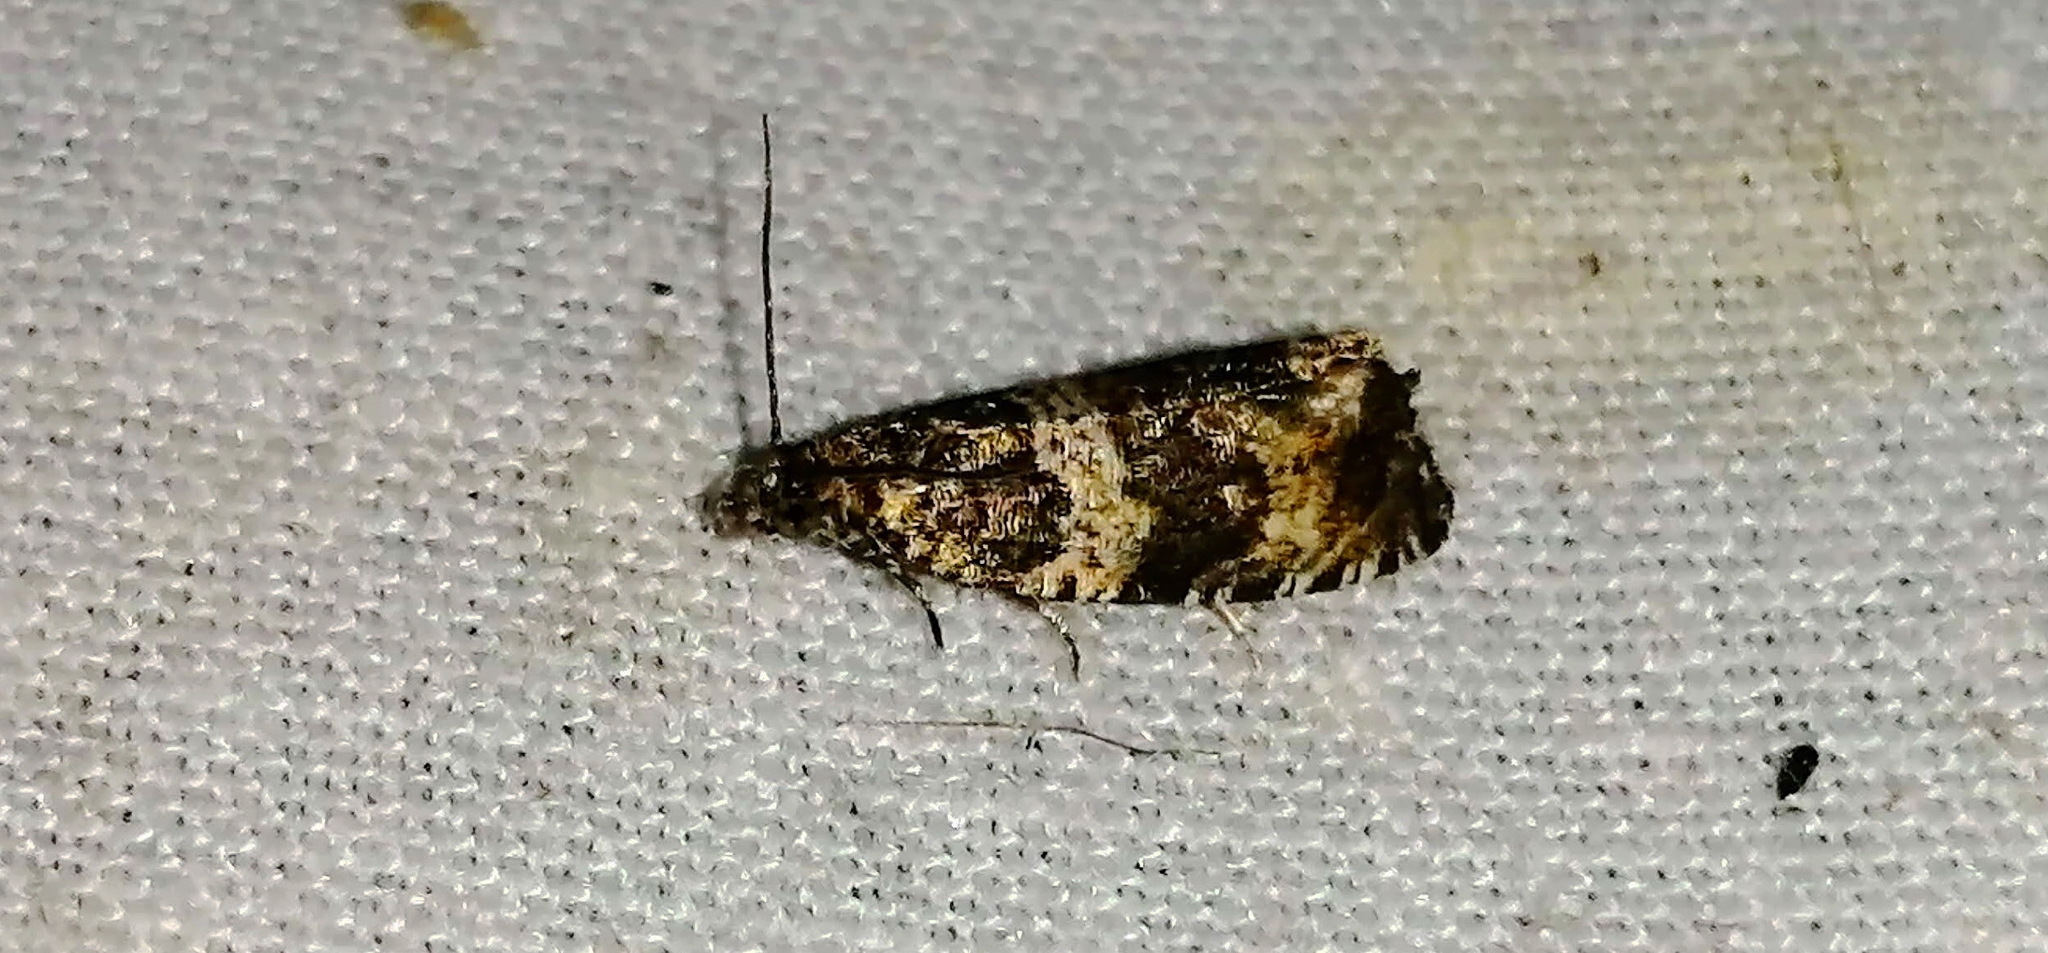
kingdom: Animalia
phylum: Arthropoda
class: Insecta
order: Lepidoptera
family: Tortricidae
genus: Celypha
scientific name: Celypha cespitana
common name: Thyme marble
